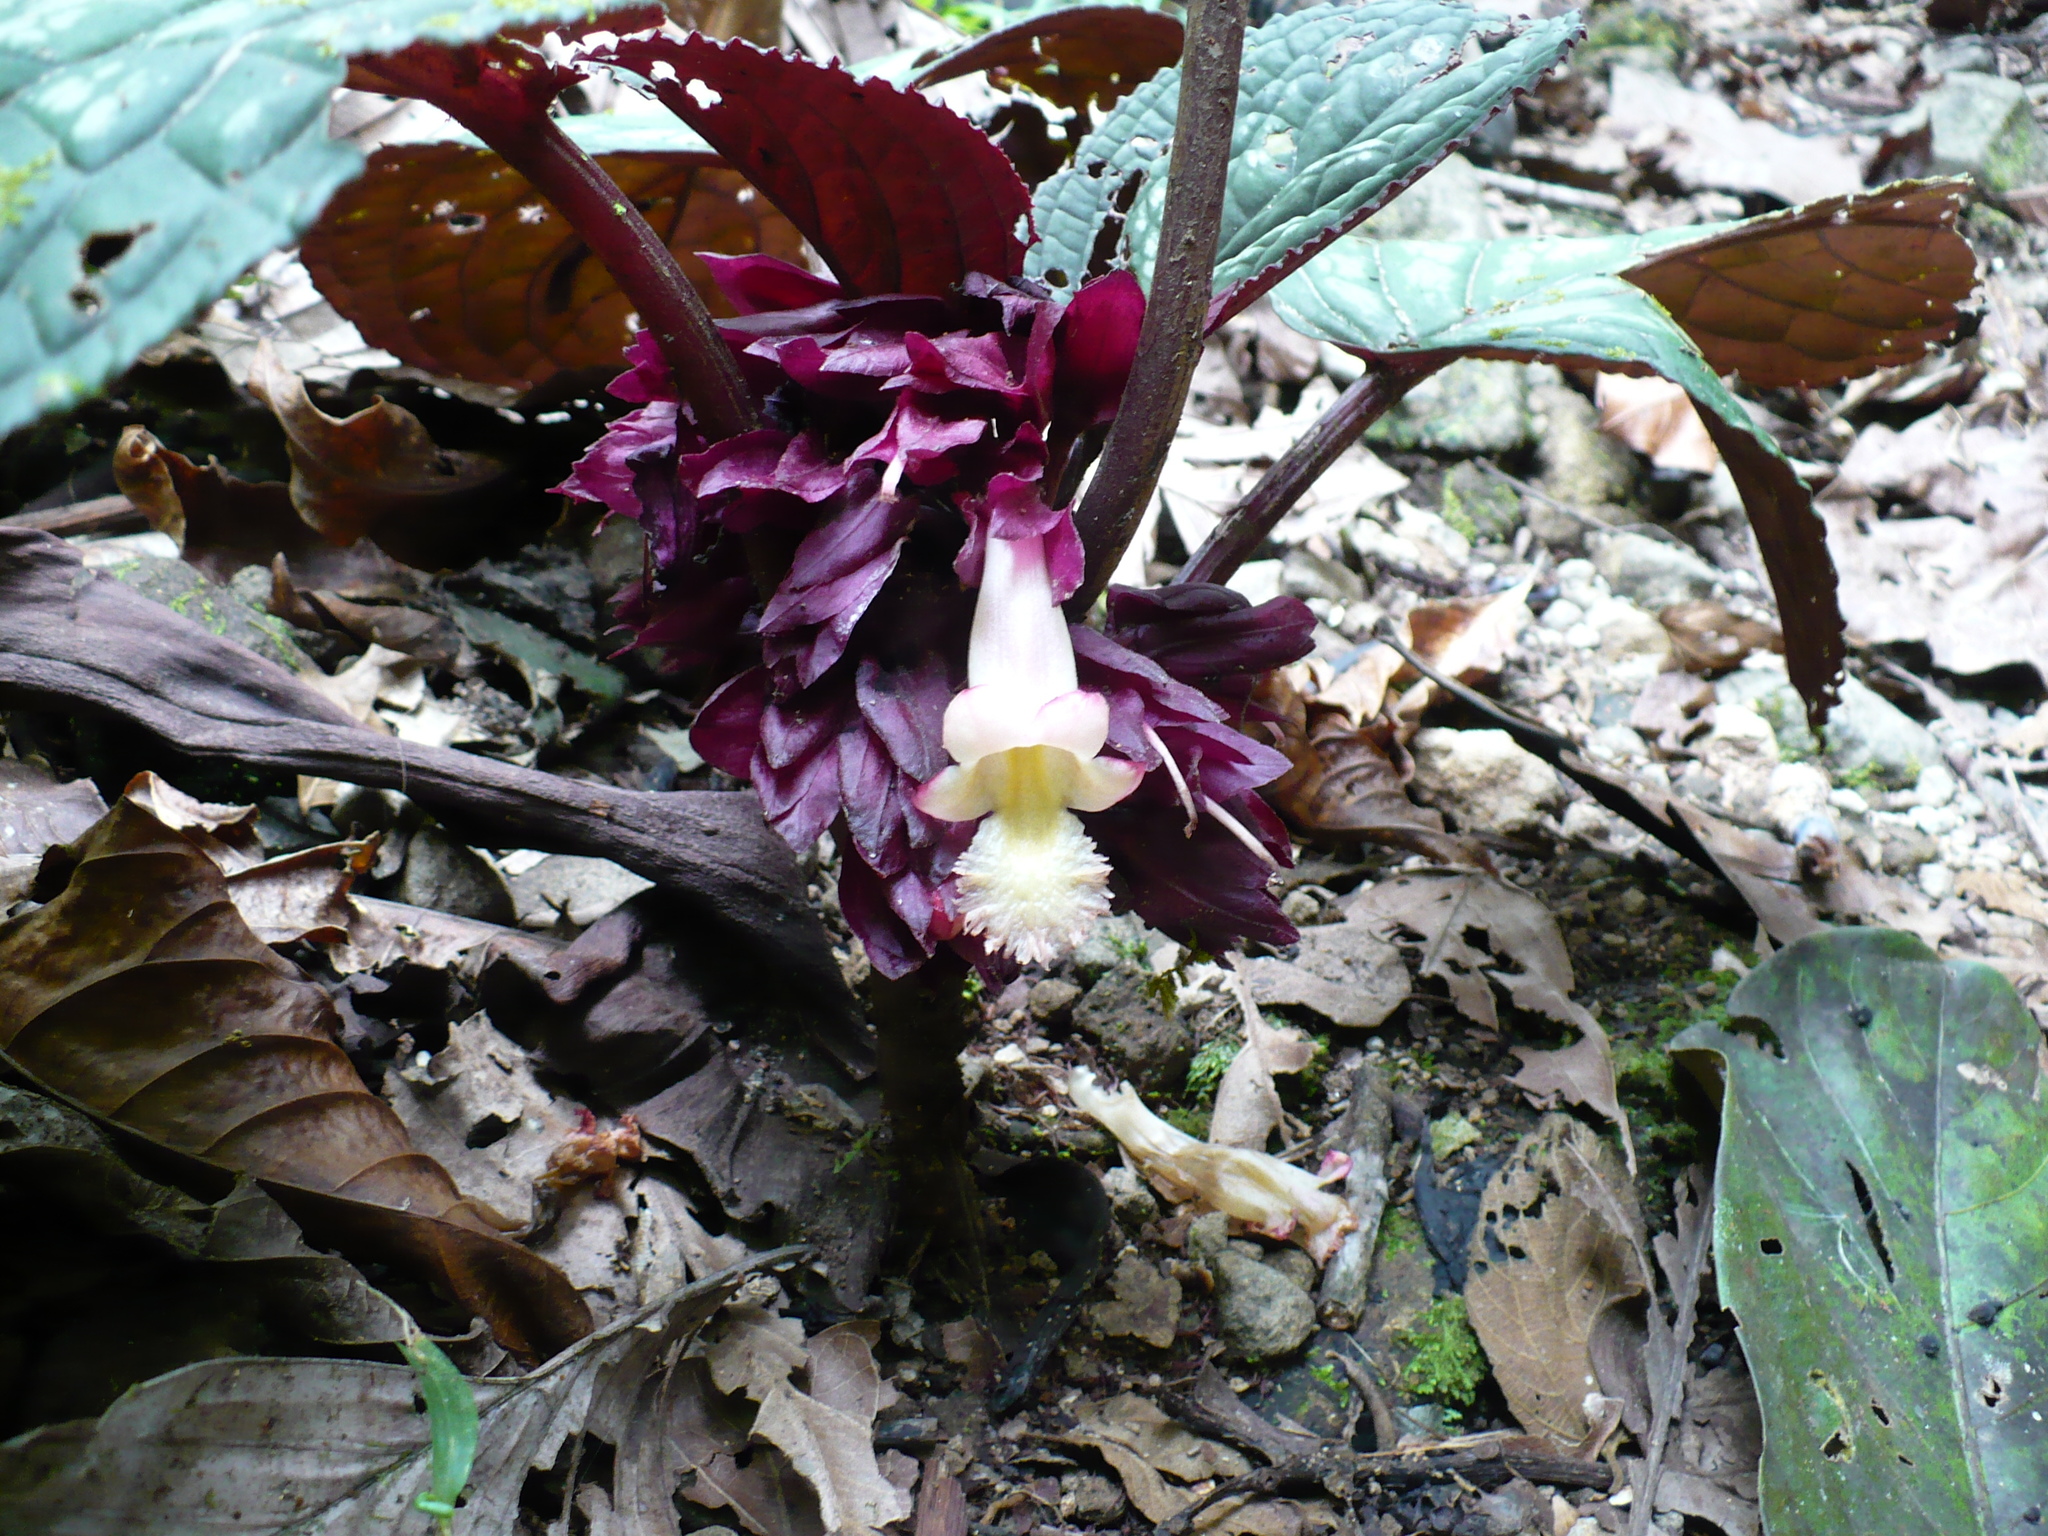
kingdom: Plantae
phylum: Tracheophyta
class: Magnoliopsida
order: Lamiales
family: Gesneriaceae
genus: Drymonia
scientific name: Drymonia turrialvae
